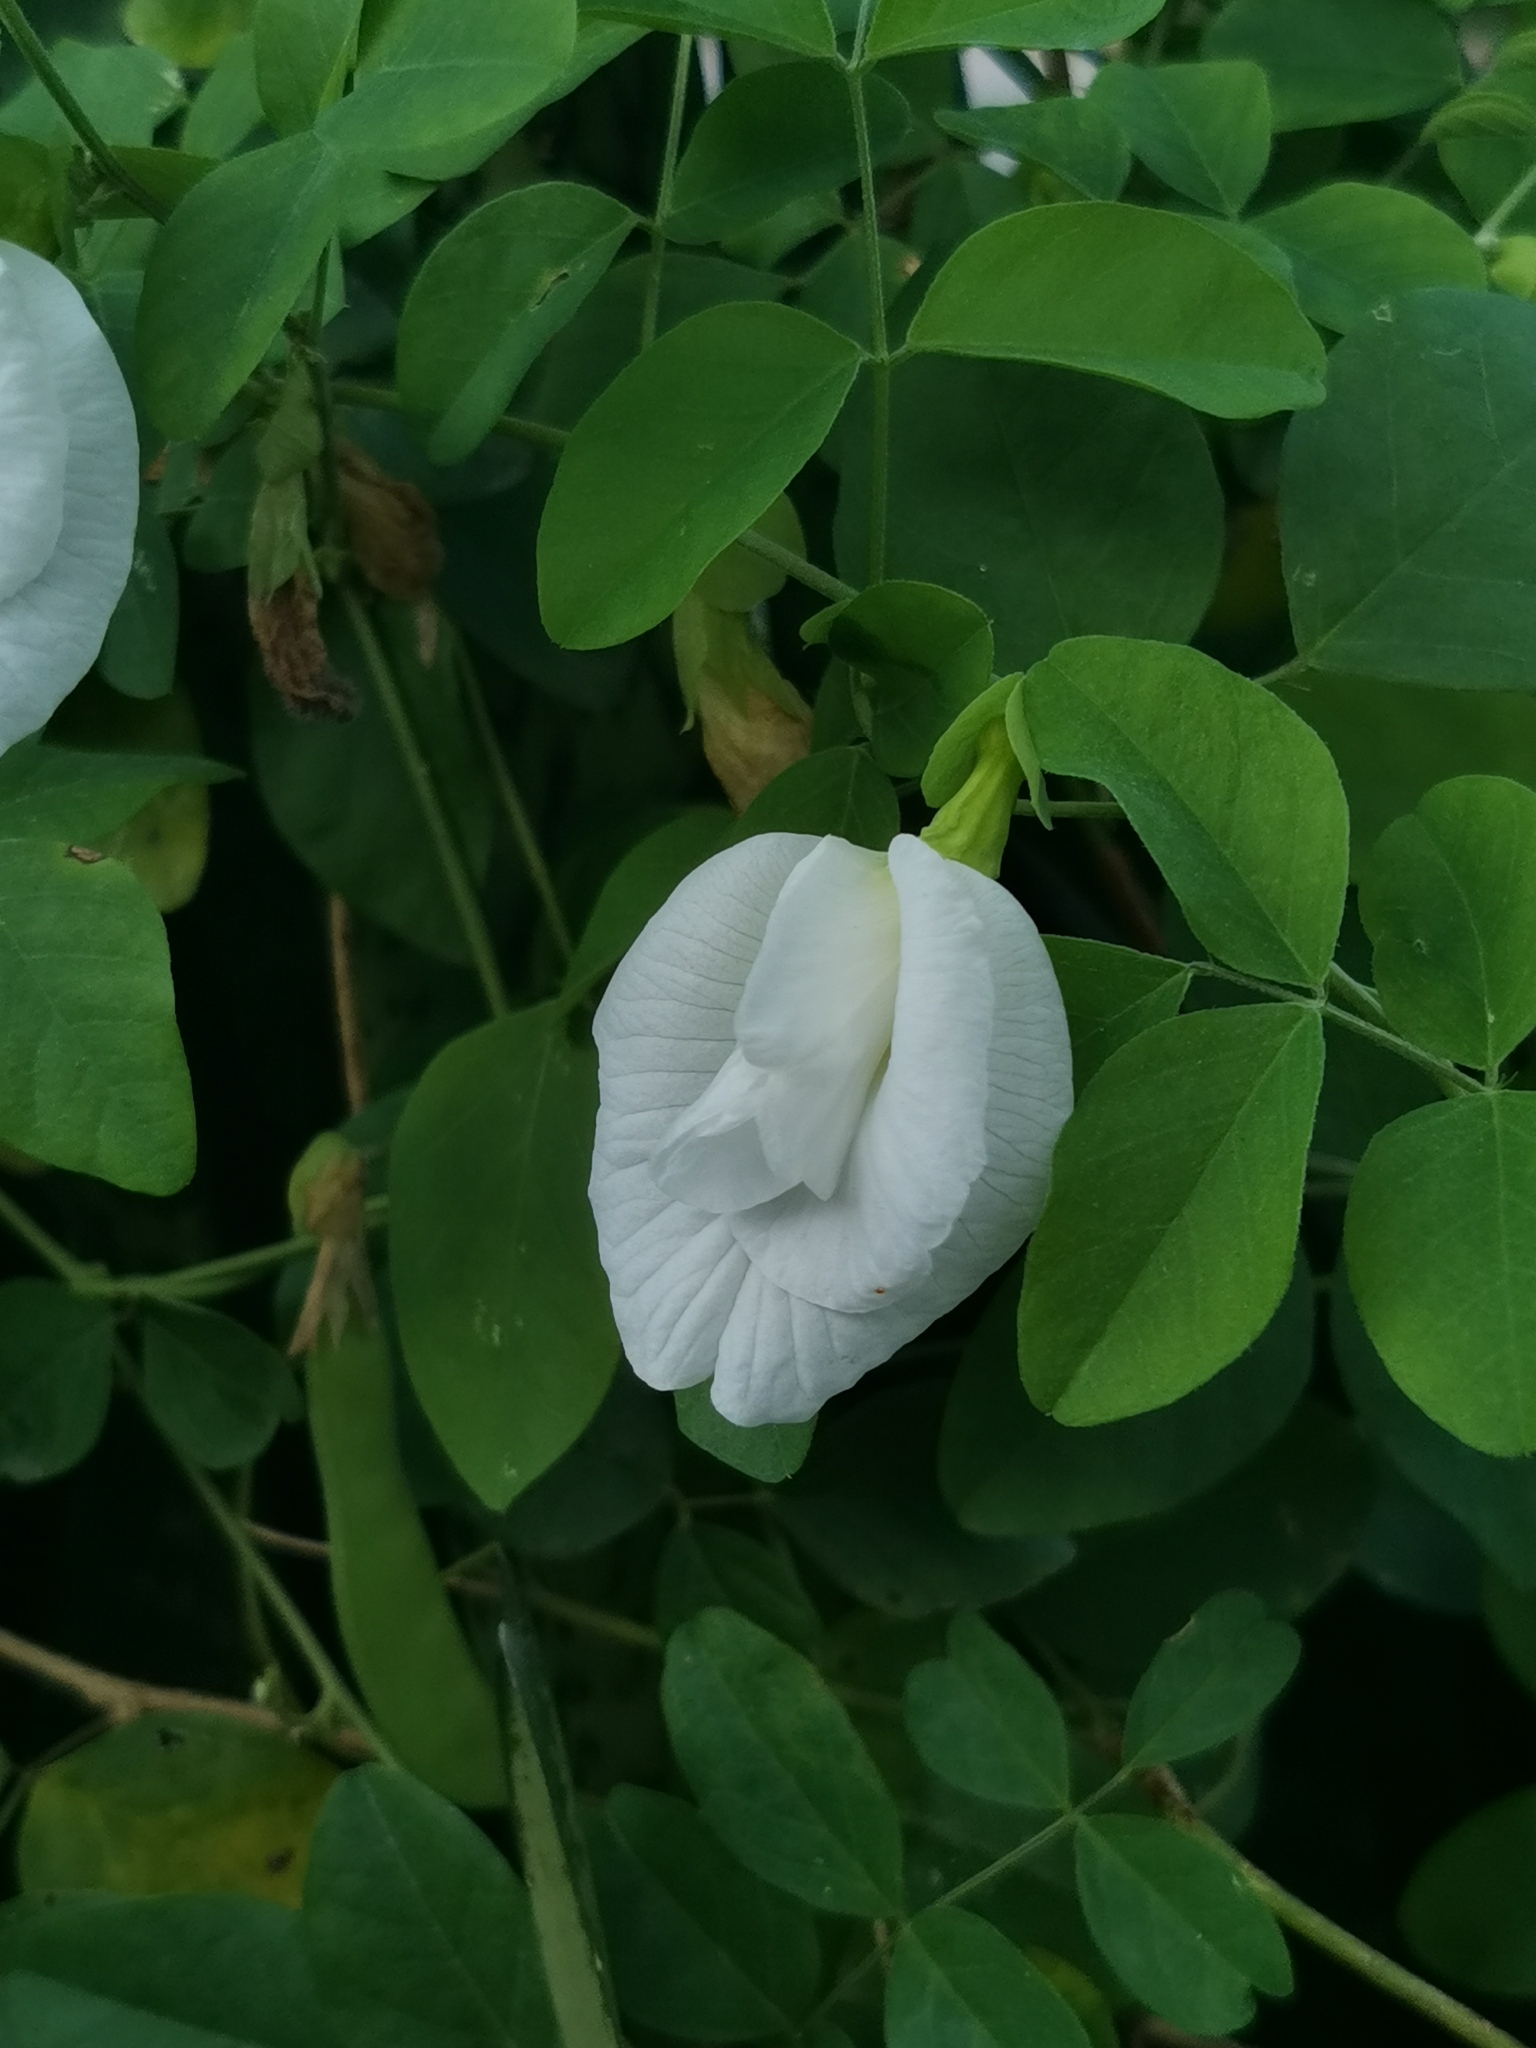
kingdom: Plantae
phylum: Tracheophyta
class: Magnoliopsida
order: Fabales
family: Fabaceae
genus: Clitoria
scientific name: Clitoria ternatea
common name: Asian pigeonwings
